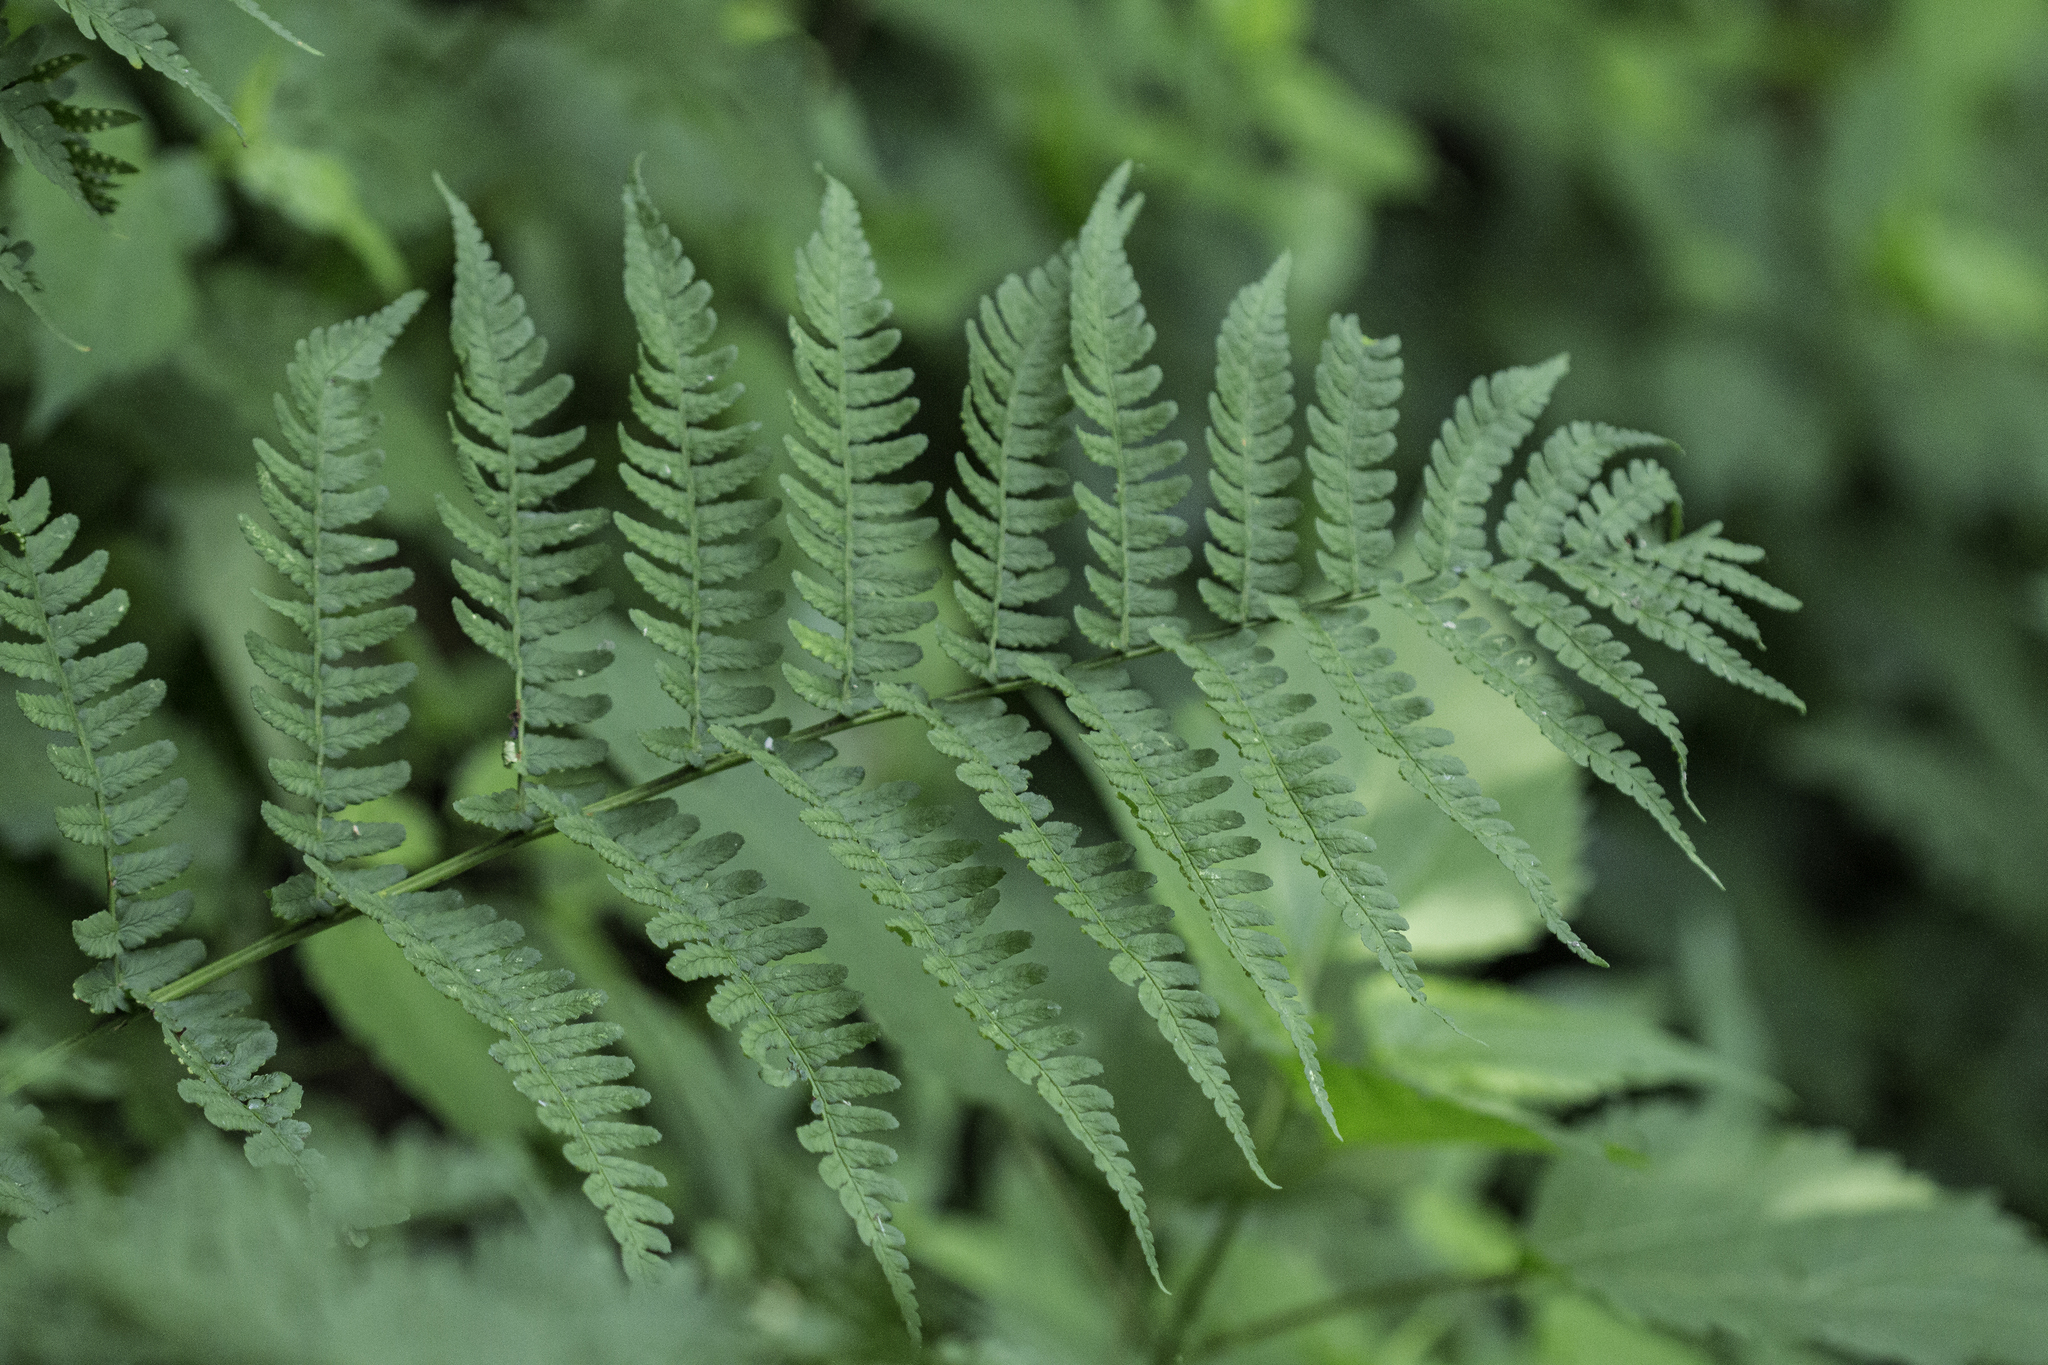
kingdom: Plantae
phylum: Tracheophyta
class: Polypodiopsida
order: Polypodiales
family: Dryopteridaceae
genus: Dryopteris
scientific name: Dryopteris marginalis
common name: Marginal wood fern
